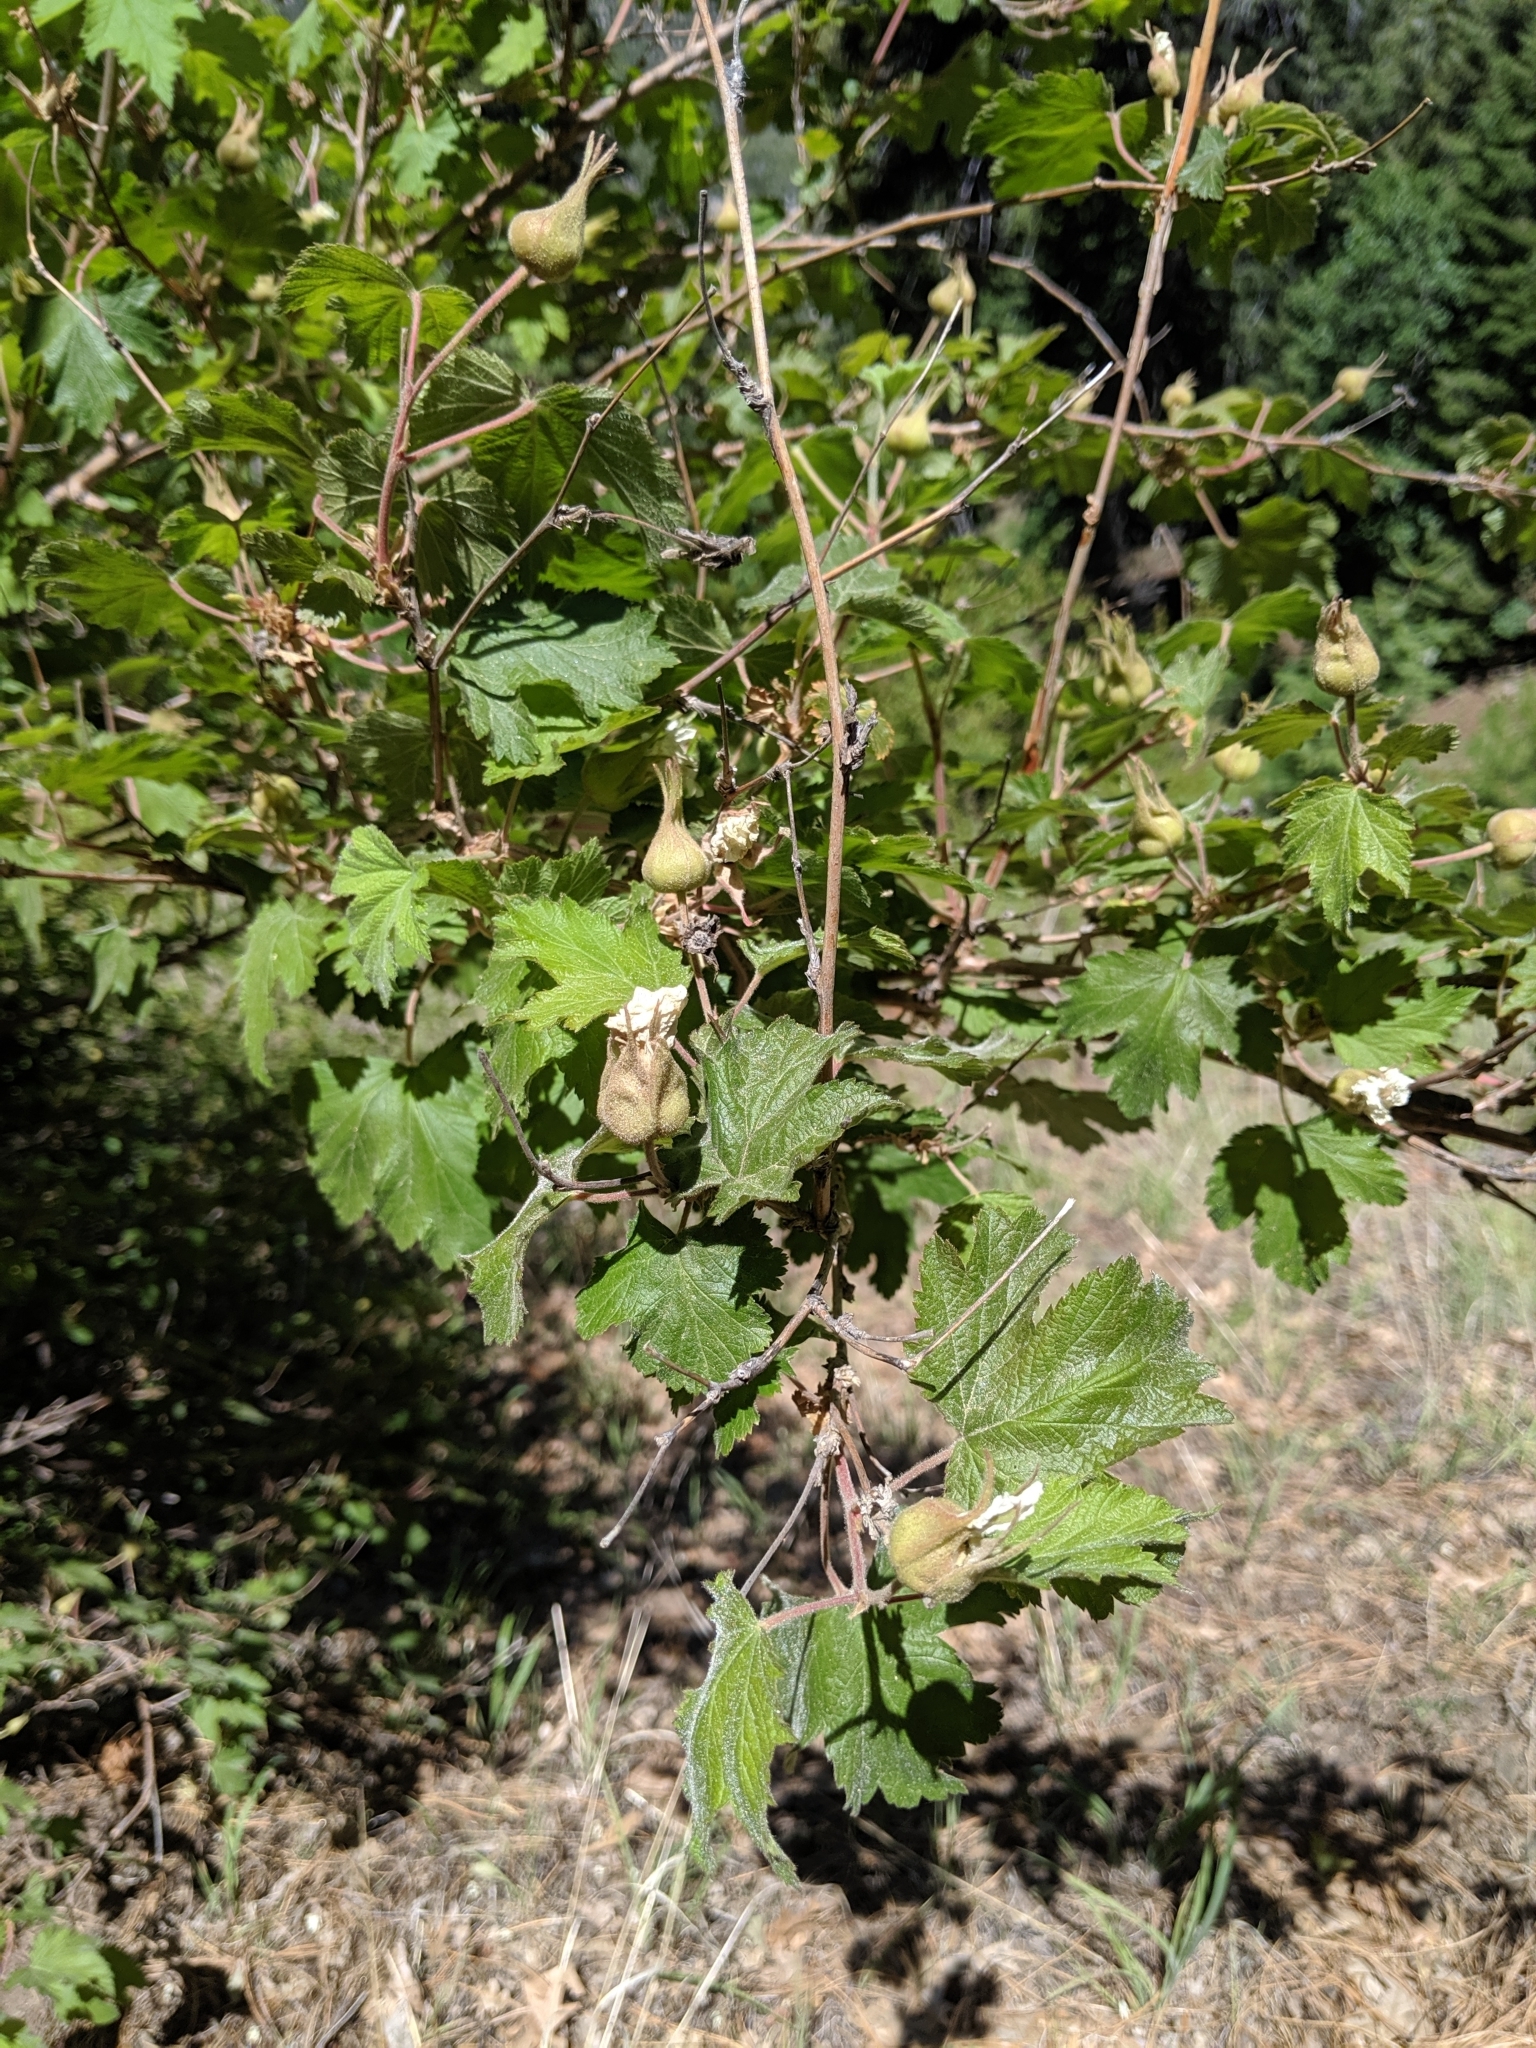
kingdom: Plantae
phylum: Tracheophyta
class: Magnoliopsida
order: Rosales
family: Rosaceae
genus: Rubus
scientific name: Rubus neomexicanus
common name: New mexico raspberry
